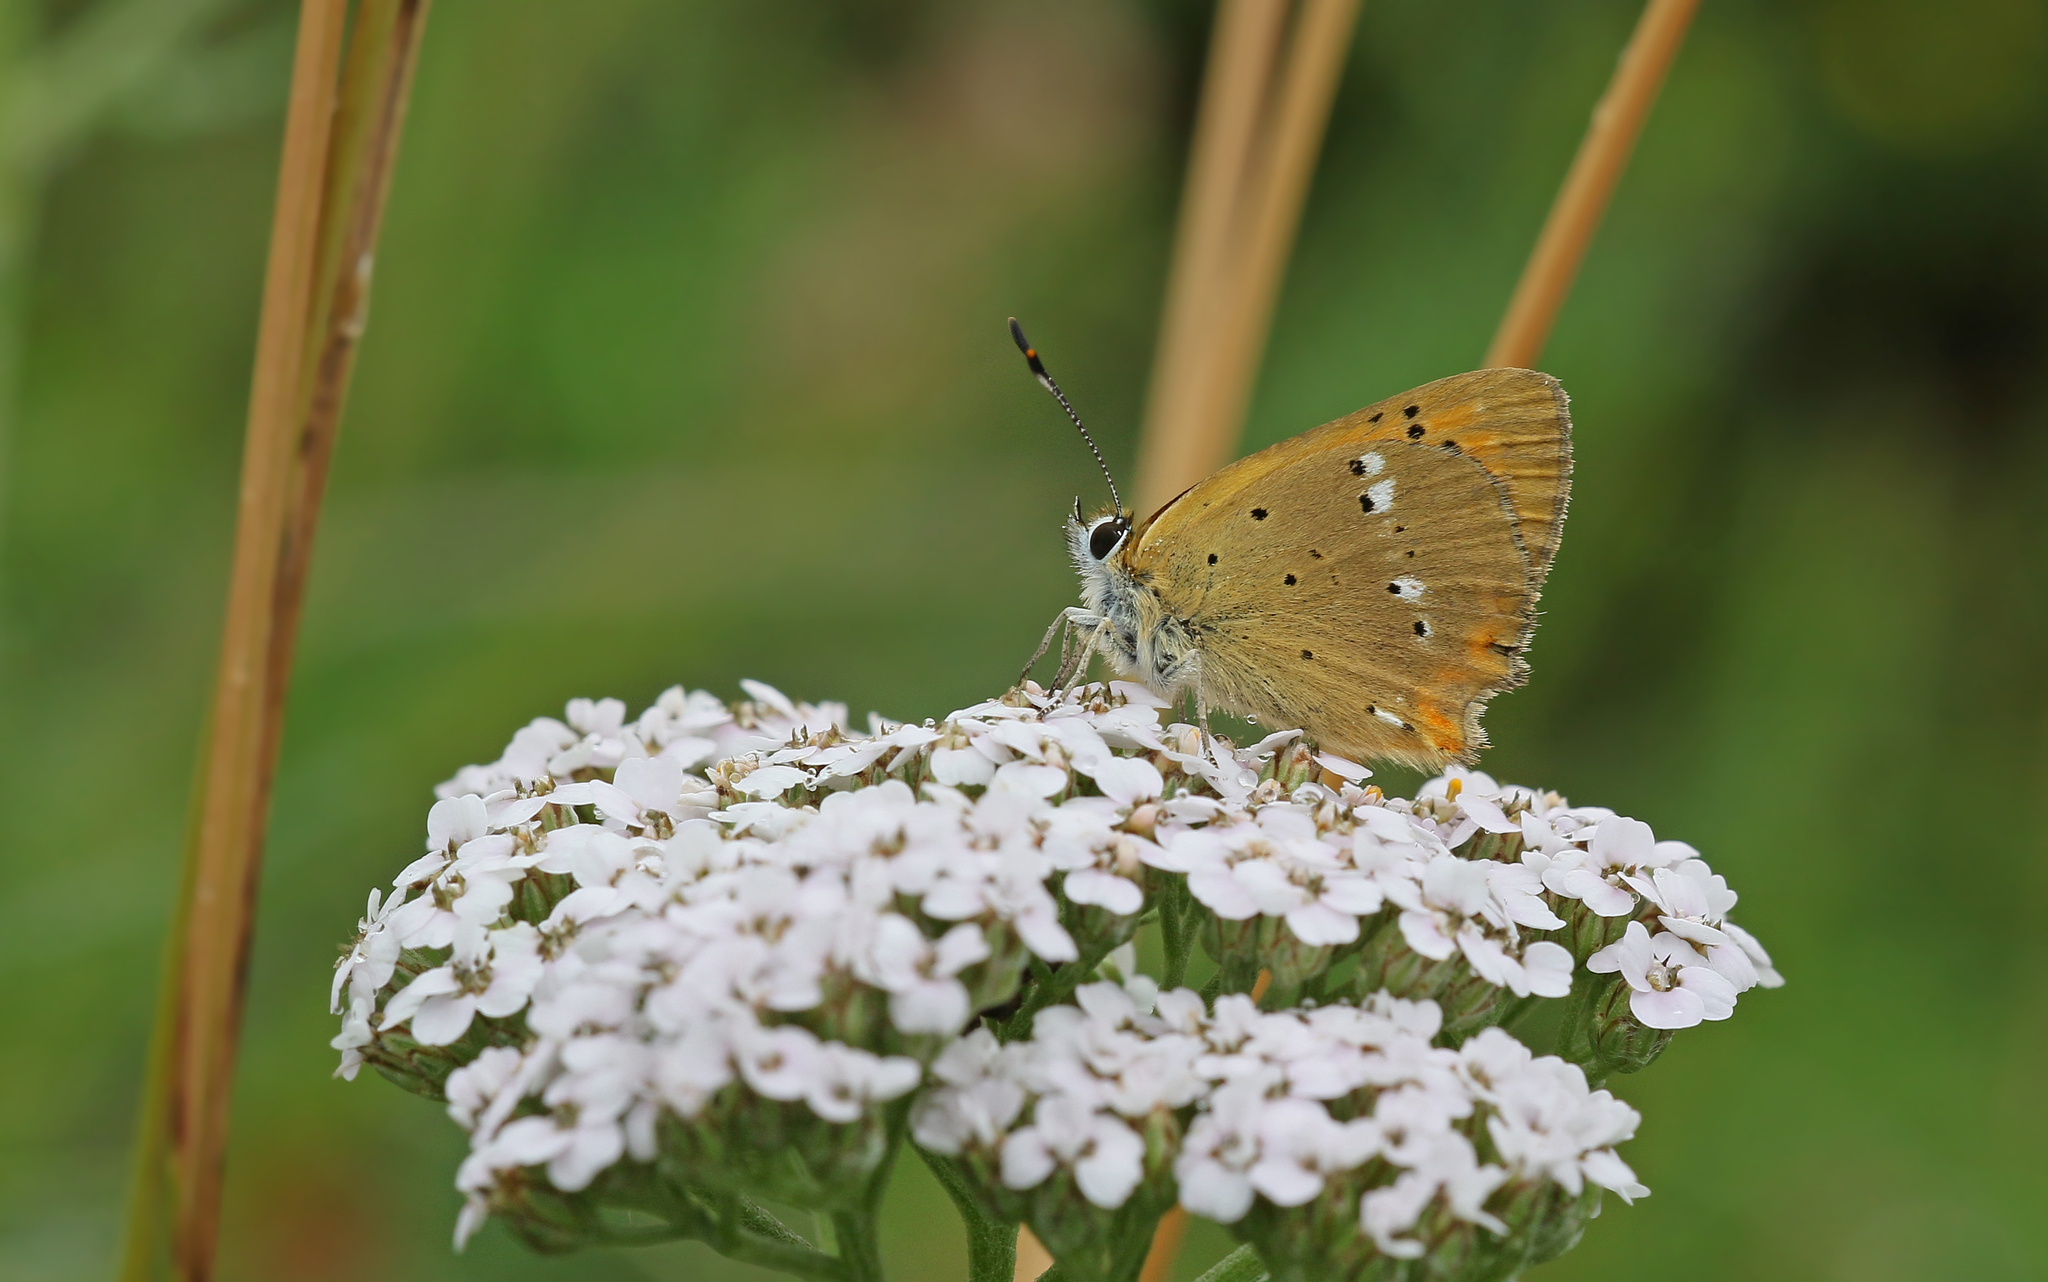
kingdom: Animalia
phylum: Arthropoda
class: Insecta
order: Lepidoptera
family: Lycaenidae
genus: Lycaena
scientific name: Lycaena virgaureae
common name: Scarce copper
